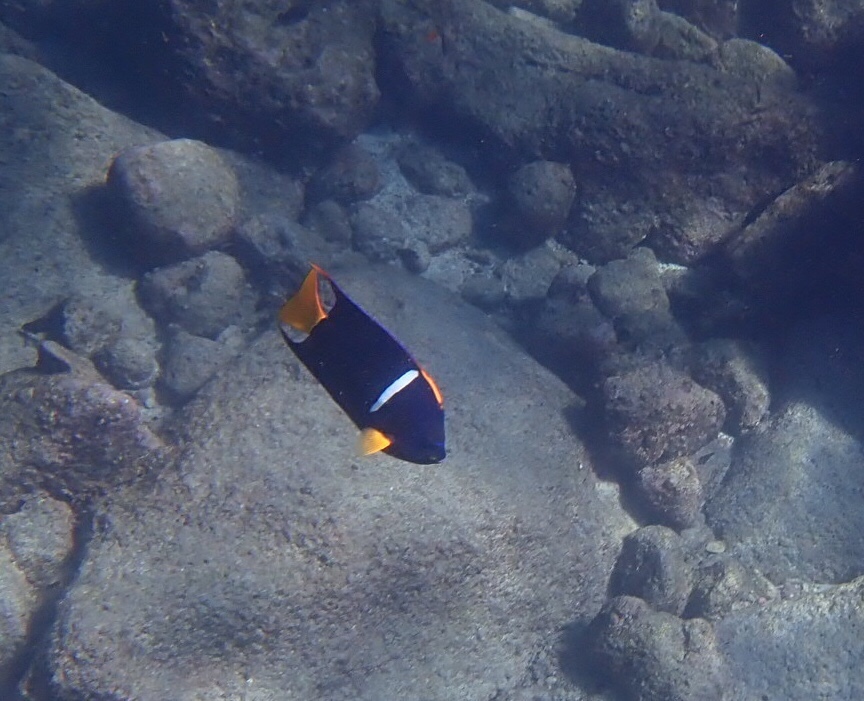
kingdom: Animalia
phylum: Chordata
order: Perciformes
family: Pomacanthidae
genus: Holacanthus
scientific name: Holacanthus passer
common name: King angelfish
